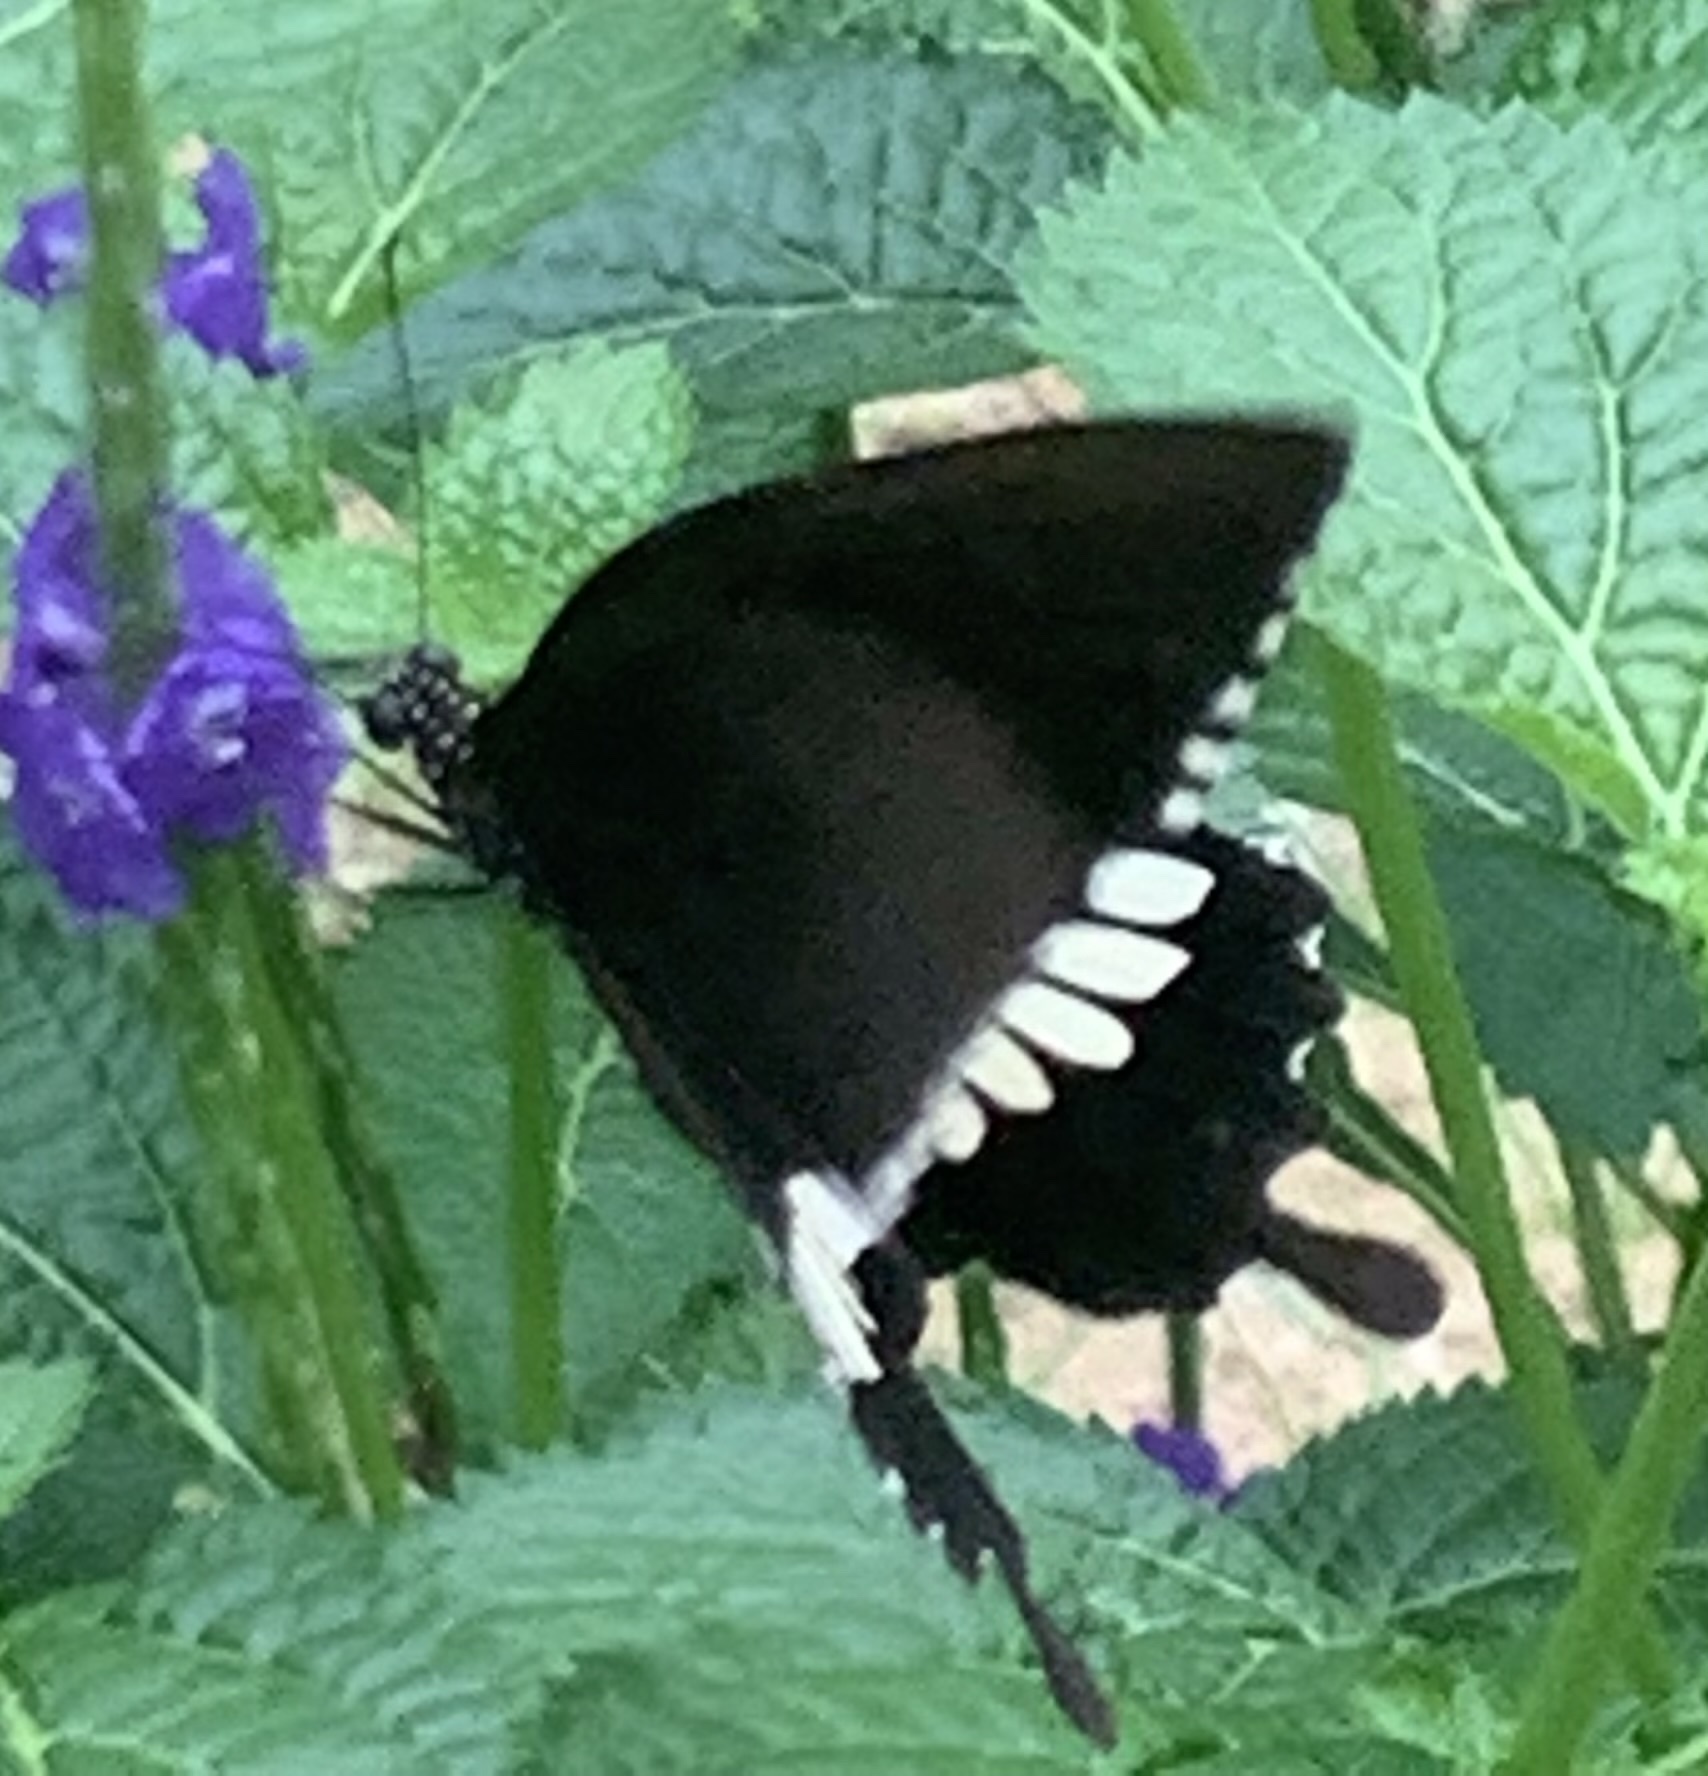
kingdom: Animalia
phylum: Arthropoda
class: Insecta
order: Lepidoptera
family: Papilionidae
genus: Papilio
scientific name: Papilio polytes
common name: Common mormon
